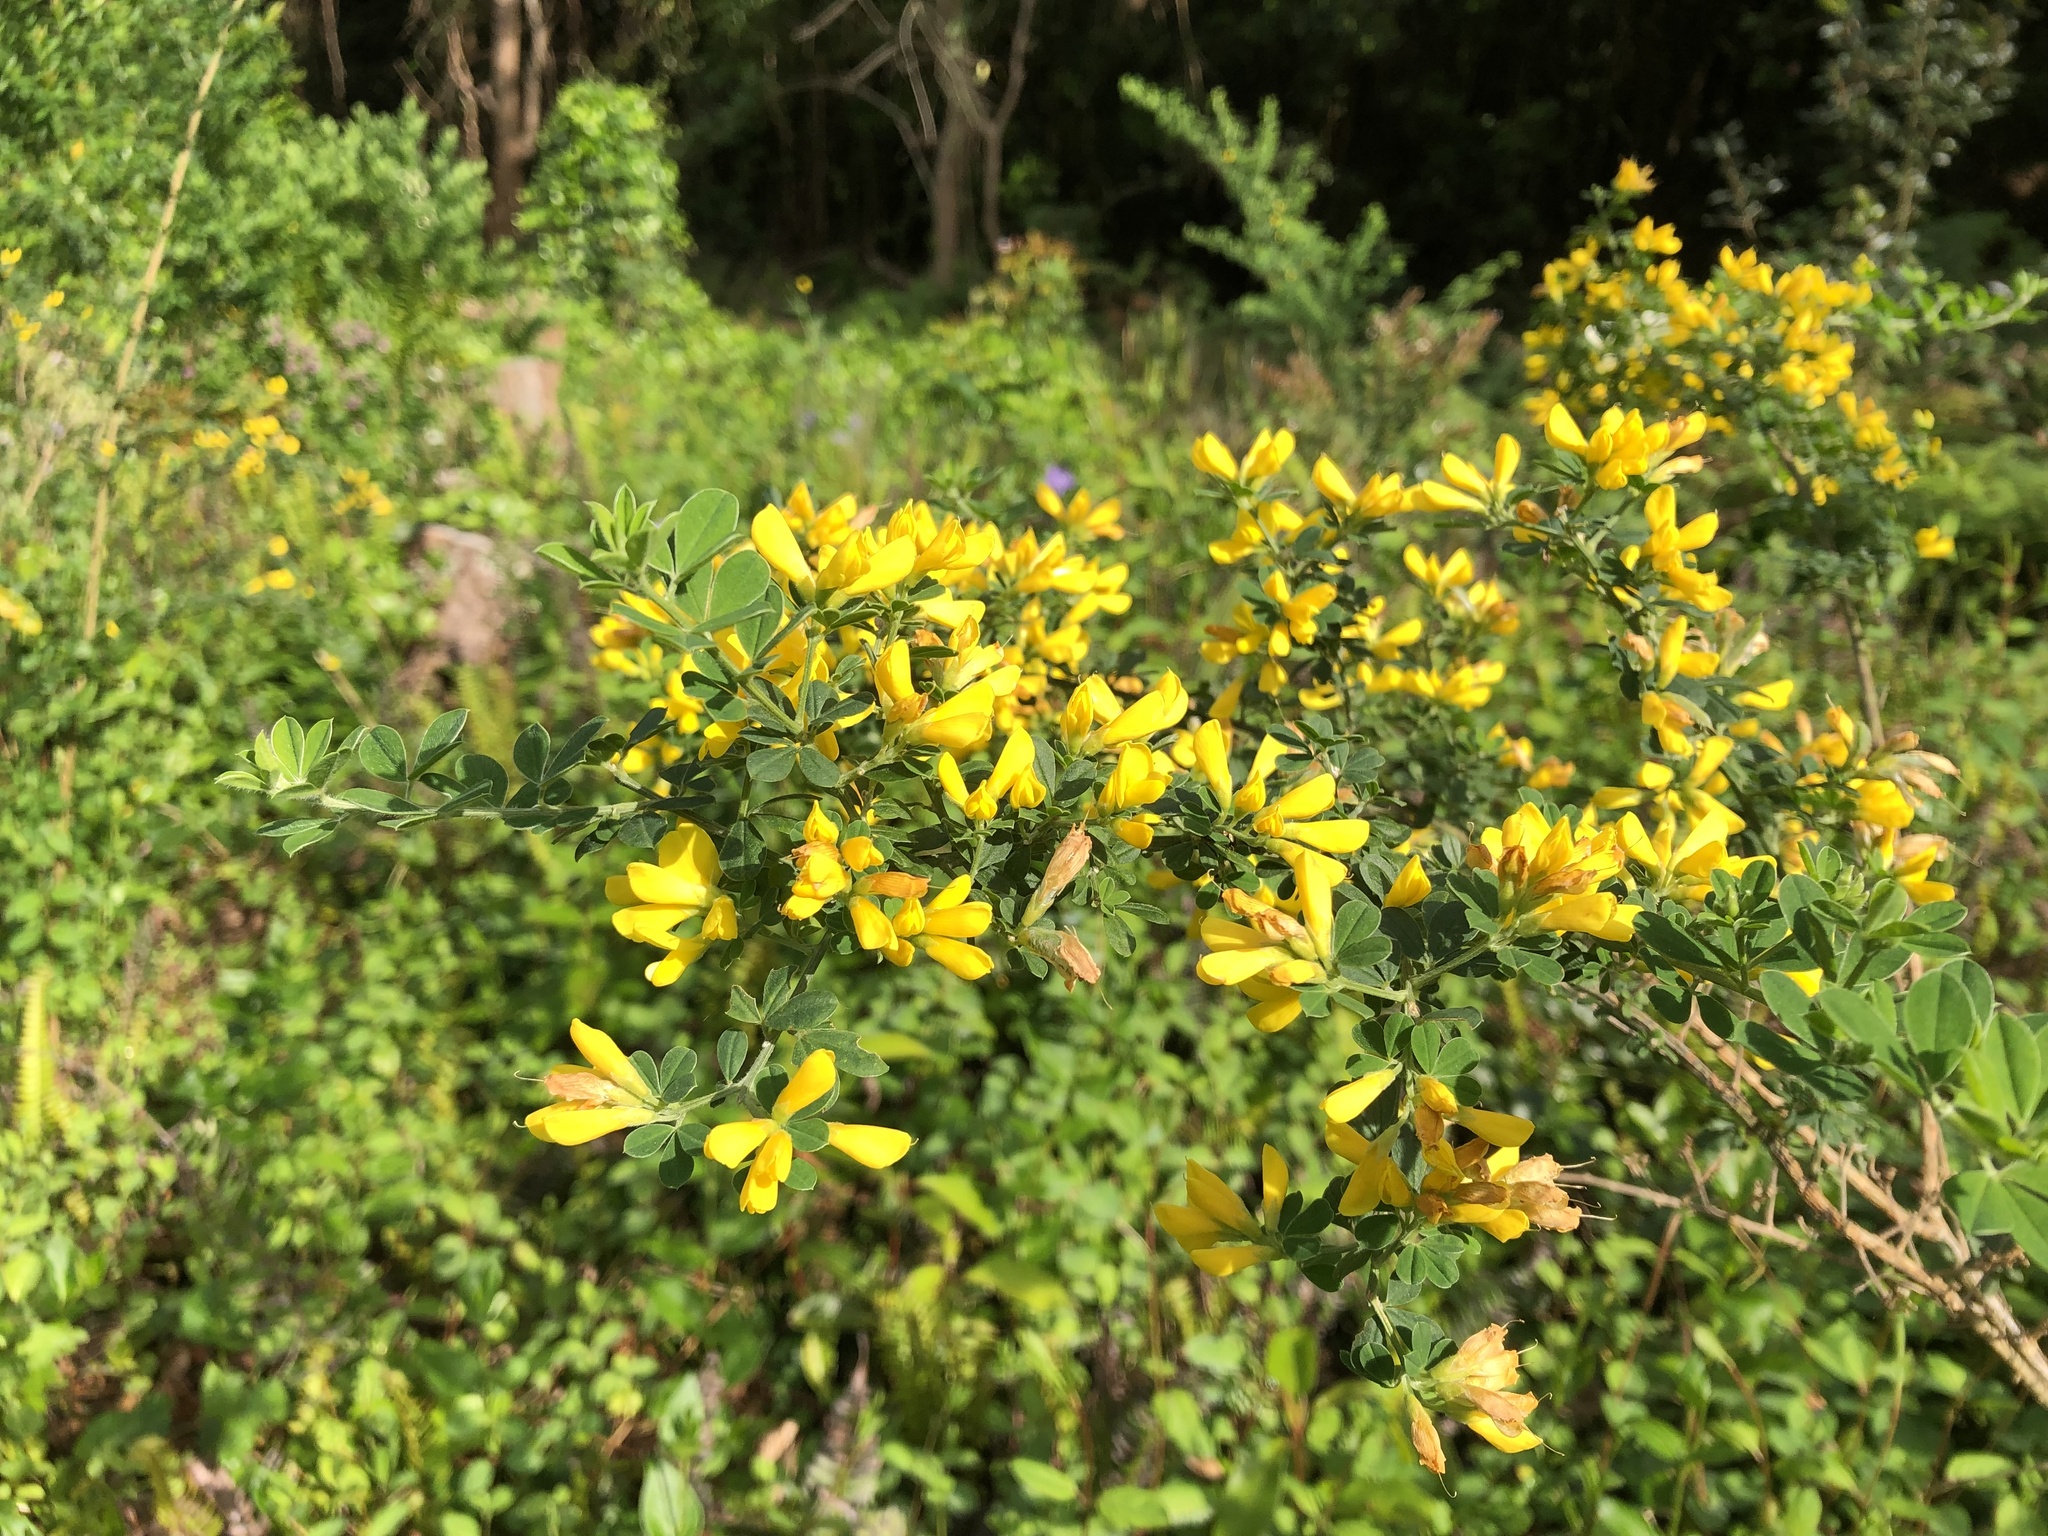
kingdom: Plantae
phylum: Tracheophyta
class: Magnoliopsida
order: Fabales
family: Fabaceae
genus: Genista
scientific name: Genista monspessulana
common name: Montpellier broom
